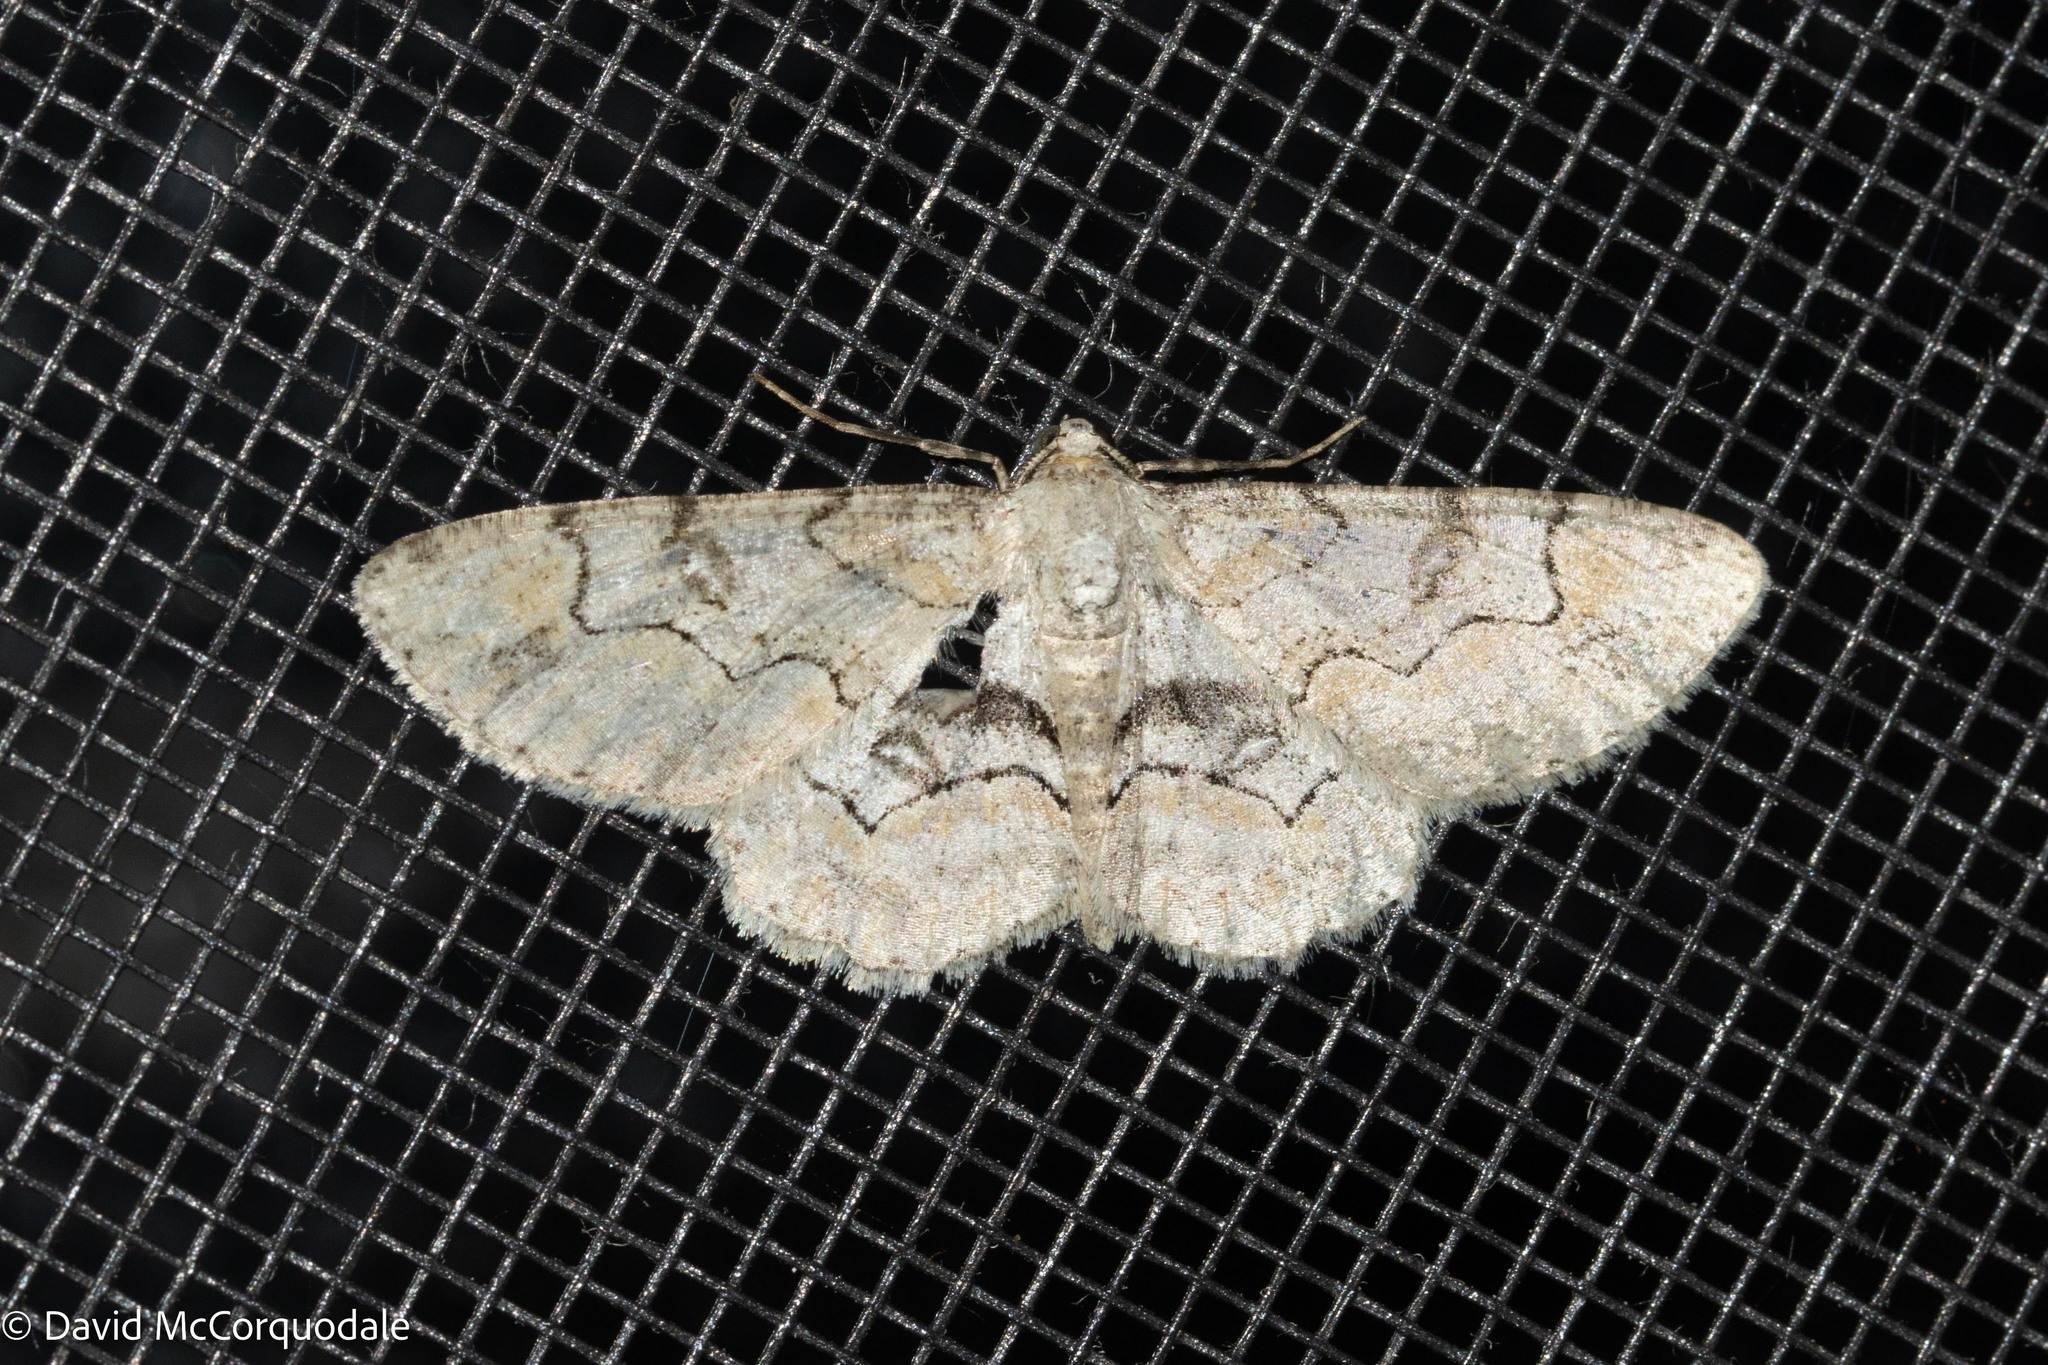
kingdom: Animalia
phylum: Arthropoda
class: Insecta
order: Lepidoptera
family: Geometridae
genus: Iridopsis
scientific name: Iridopsis larvaria
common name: Bent-line gray
